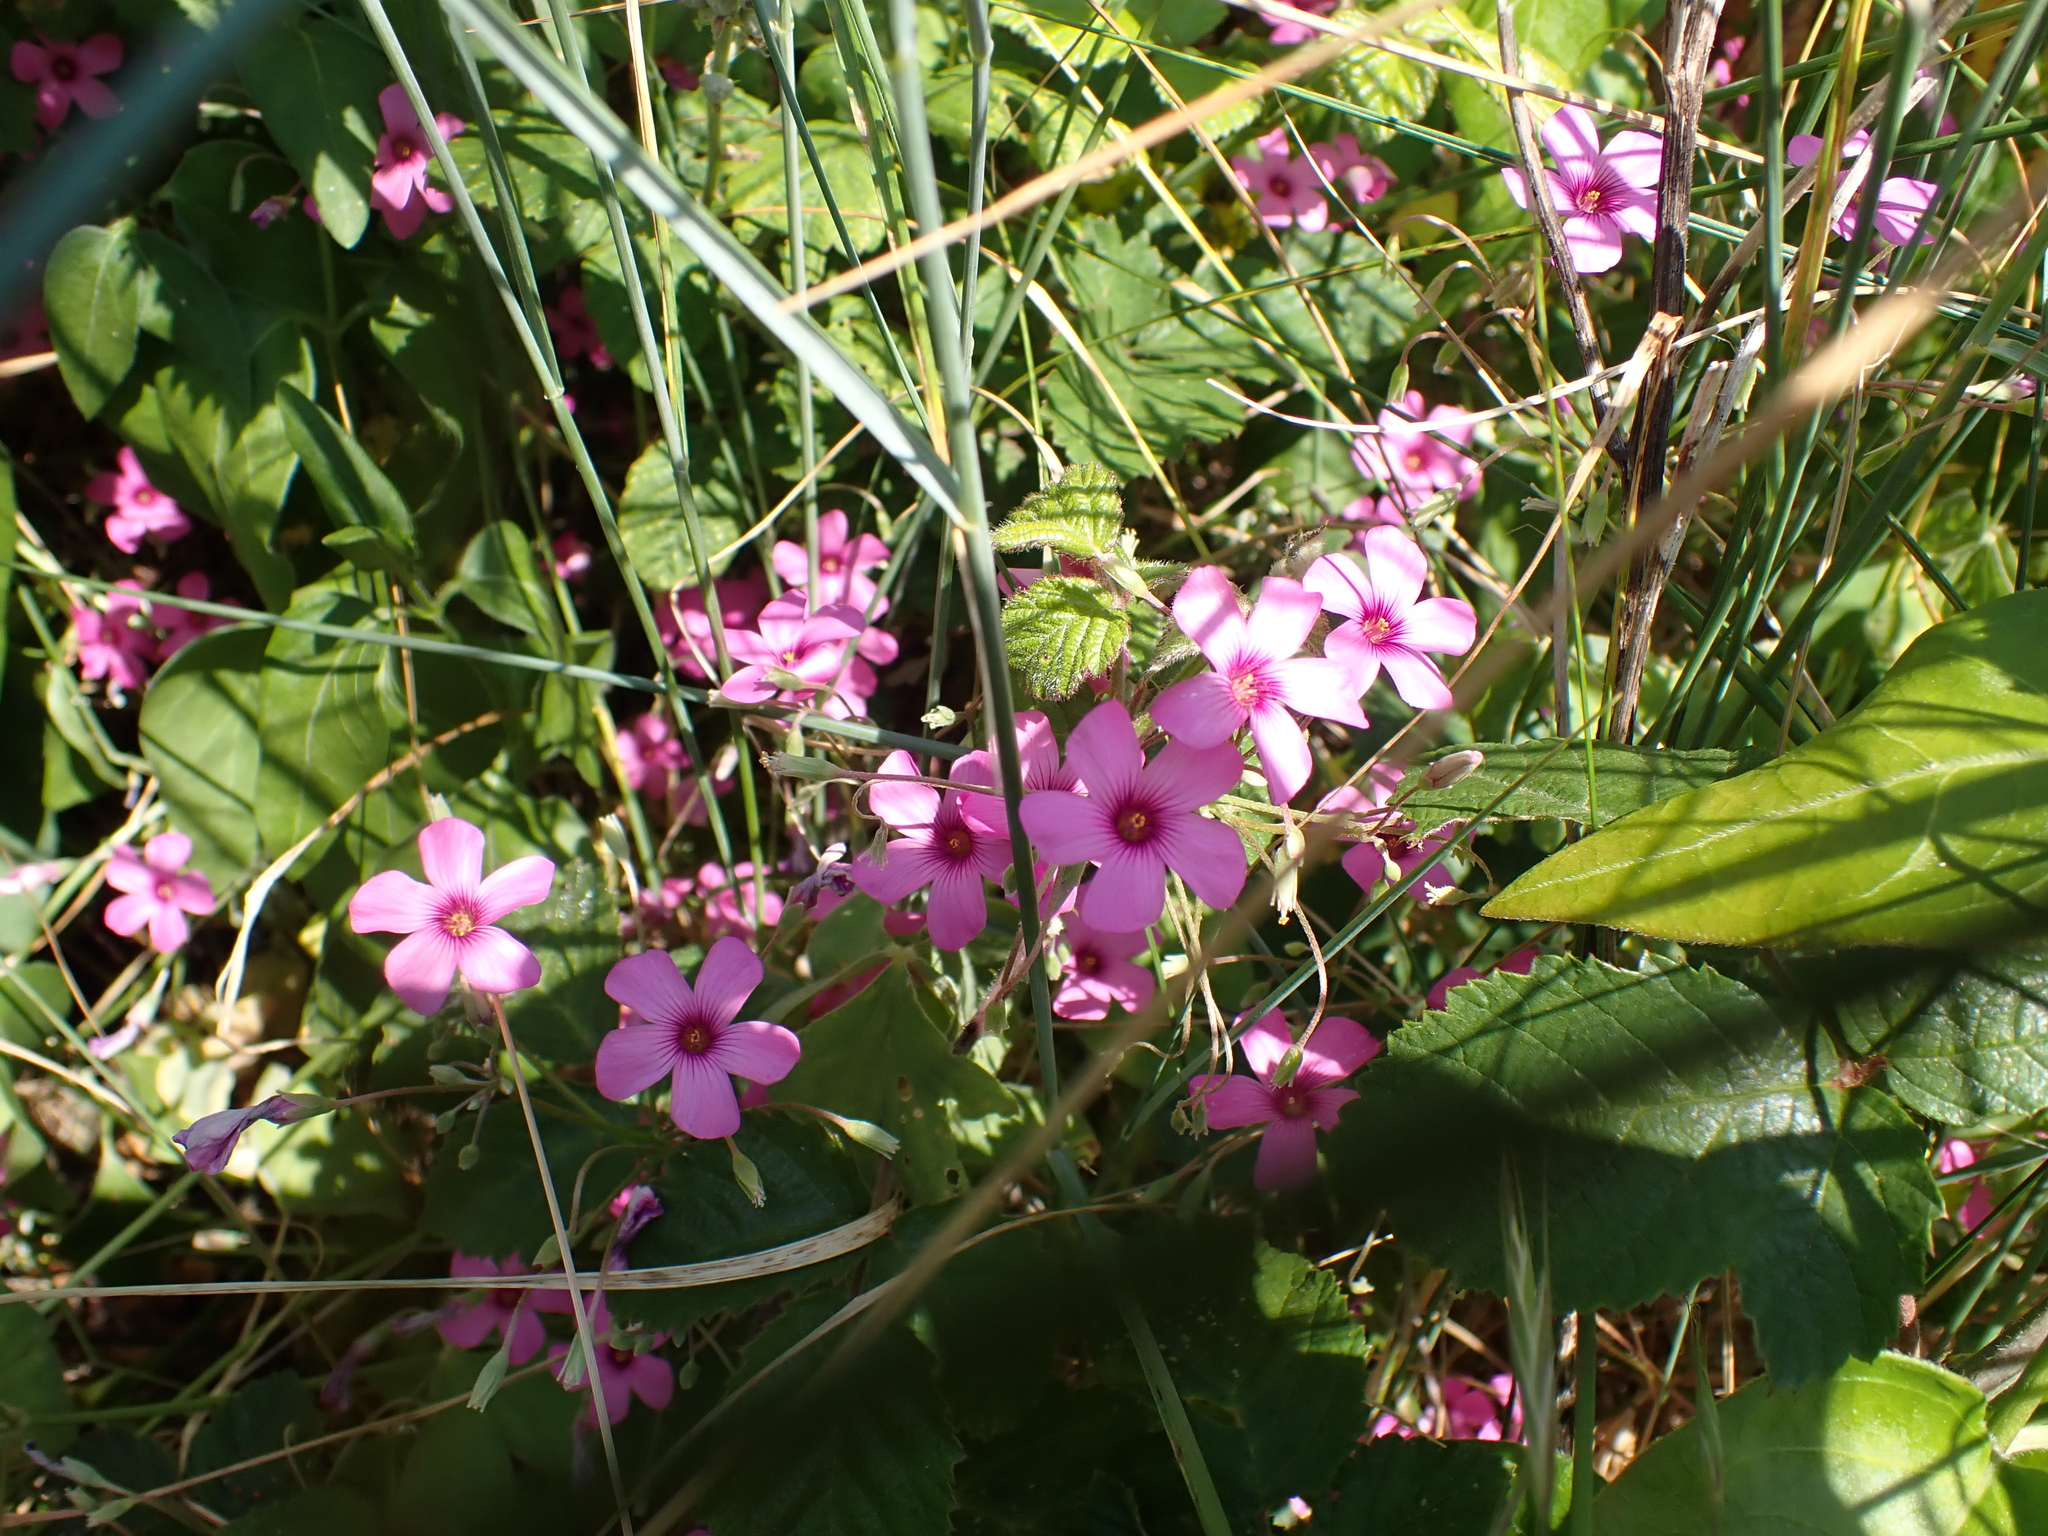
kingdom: Plantae
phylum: Tracheophyta
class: Magnoliopsida
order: Oxalidales
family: Oxalidaceae
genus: Oxalis
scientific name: Oxalis articulata
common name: Pink-sorrel
